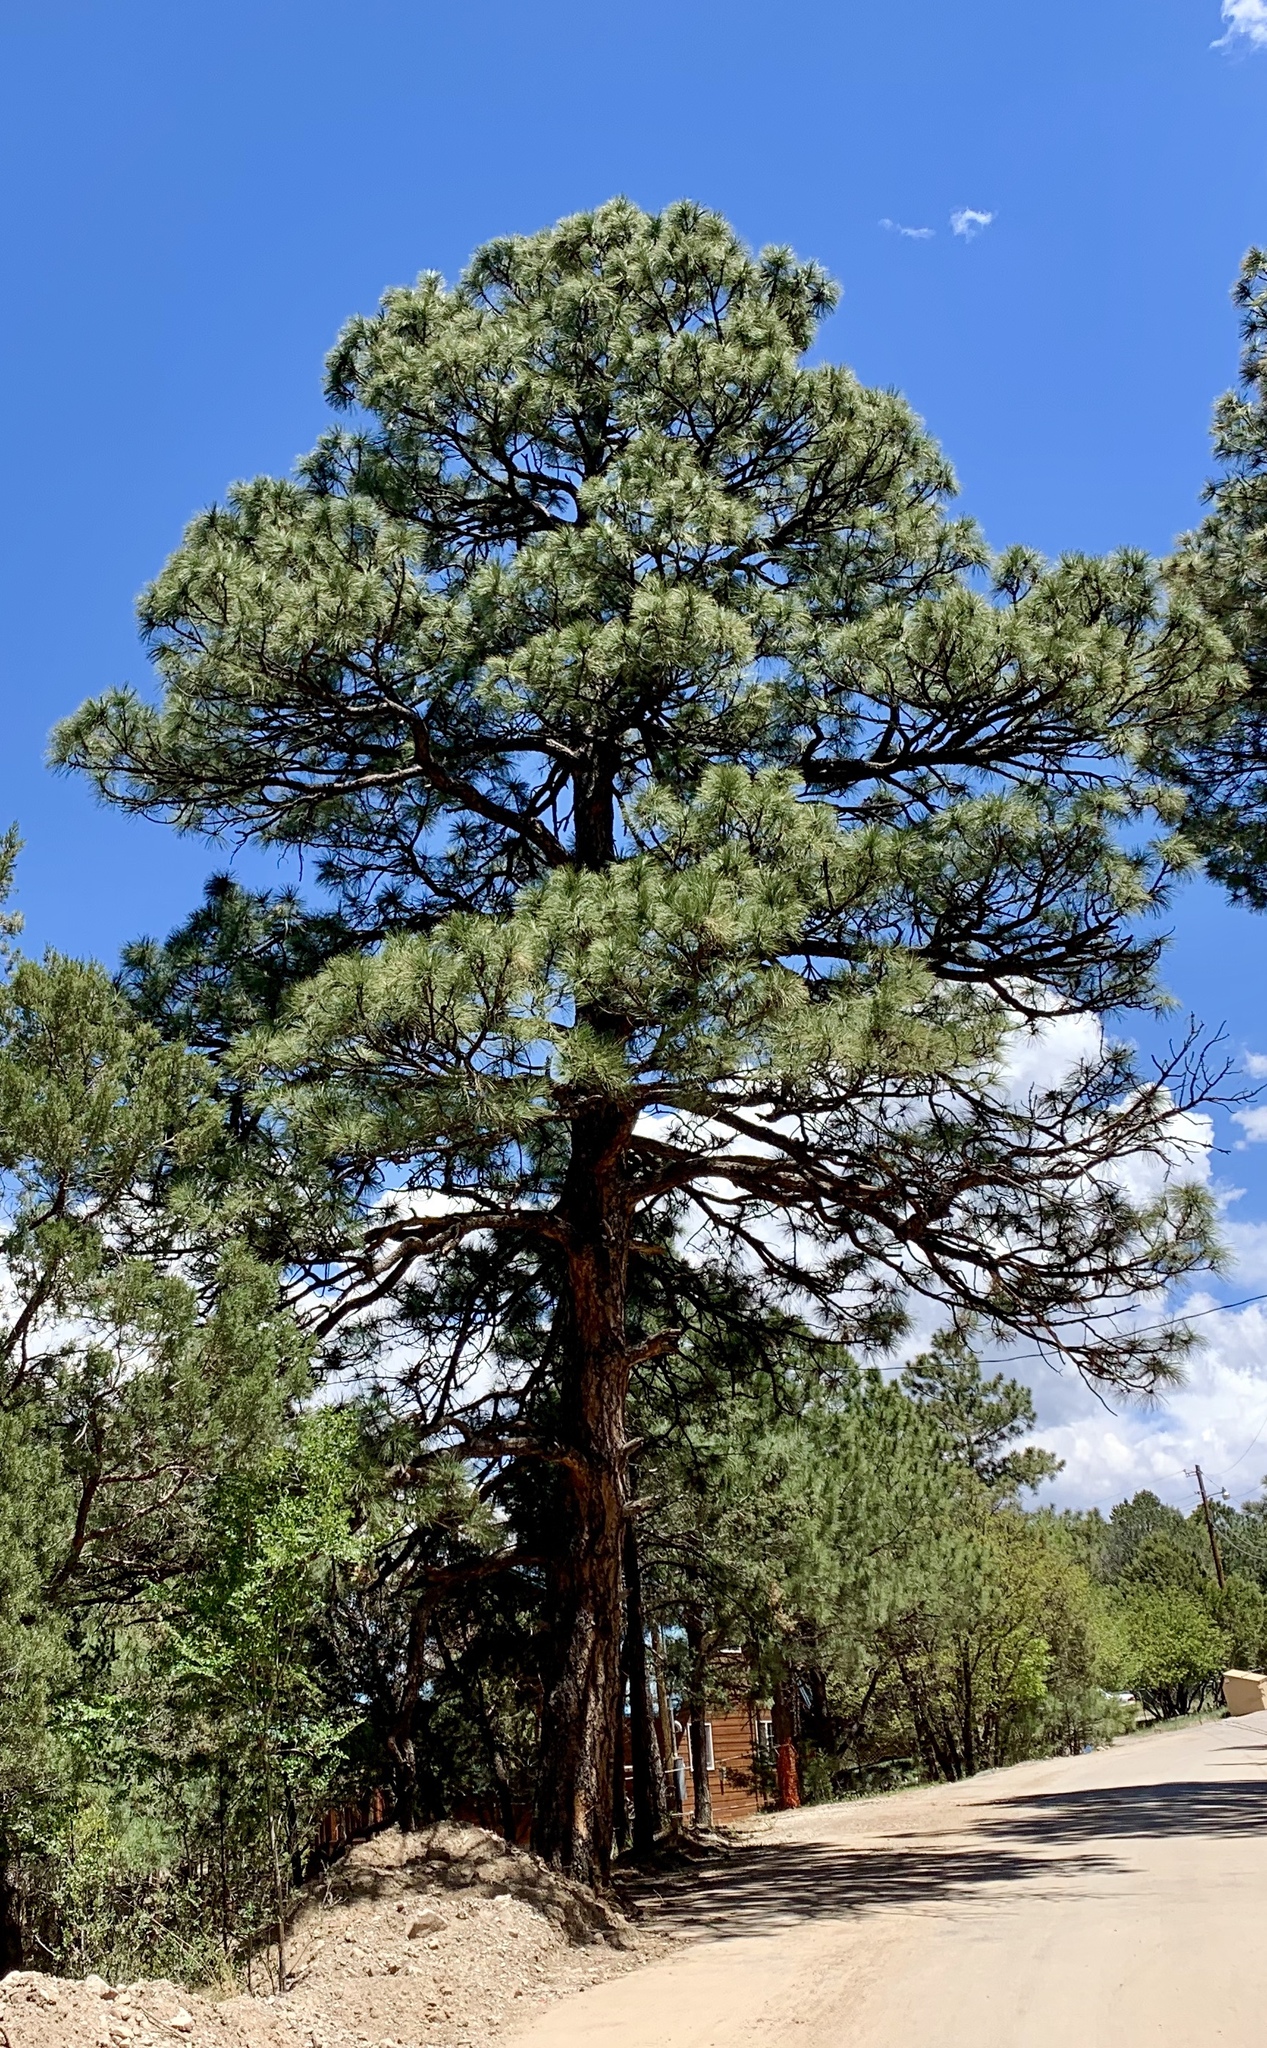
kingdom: Plantae
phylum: Tracheophyta
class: Pinopsida
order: Pinales
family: Pinaceae
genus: Pinus
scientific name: Pinus ponderosa
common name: Western yellow-pine
